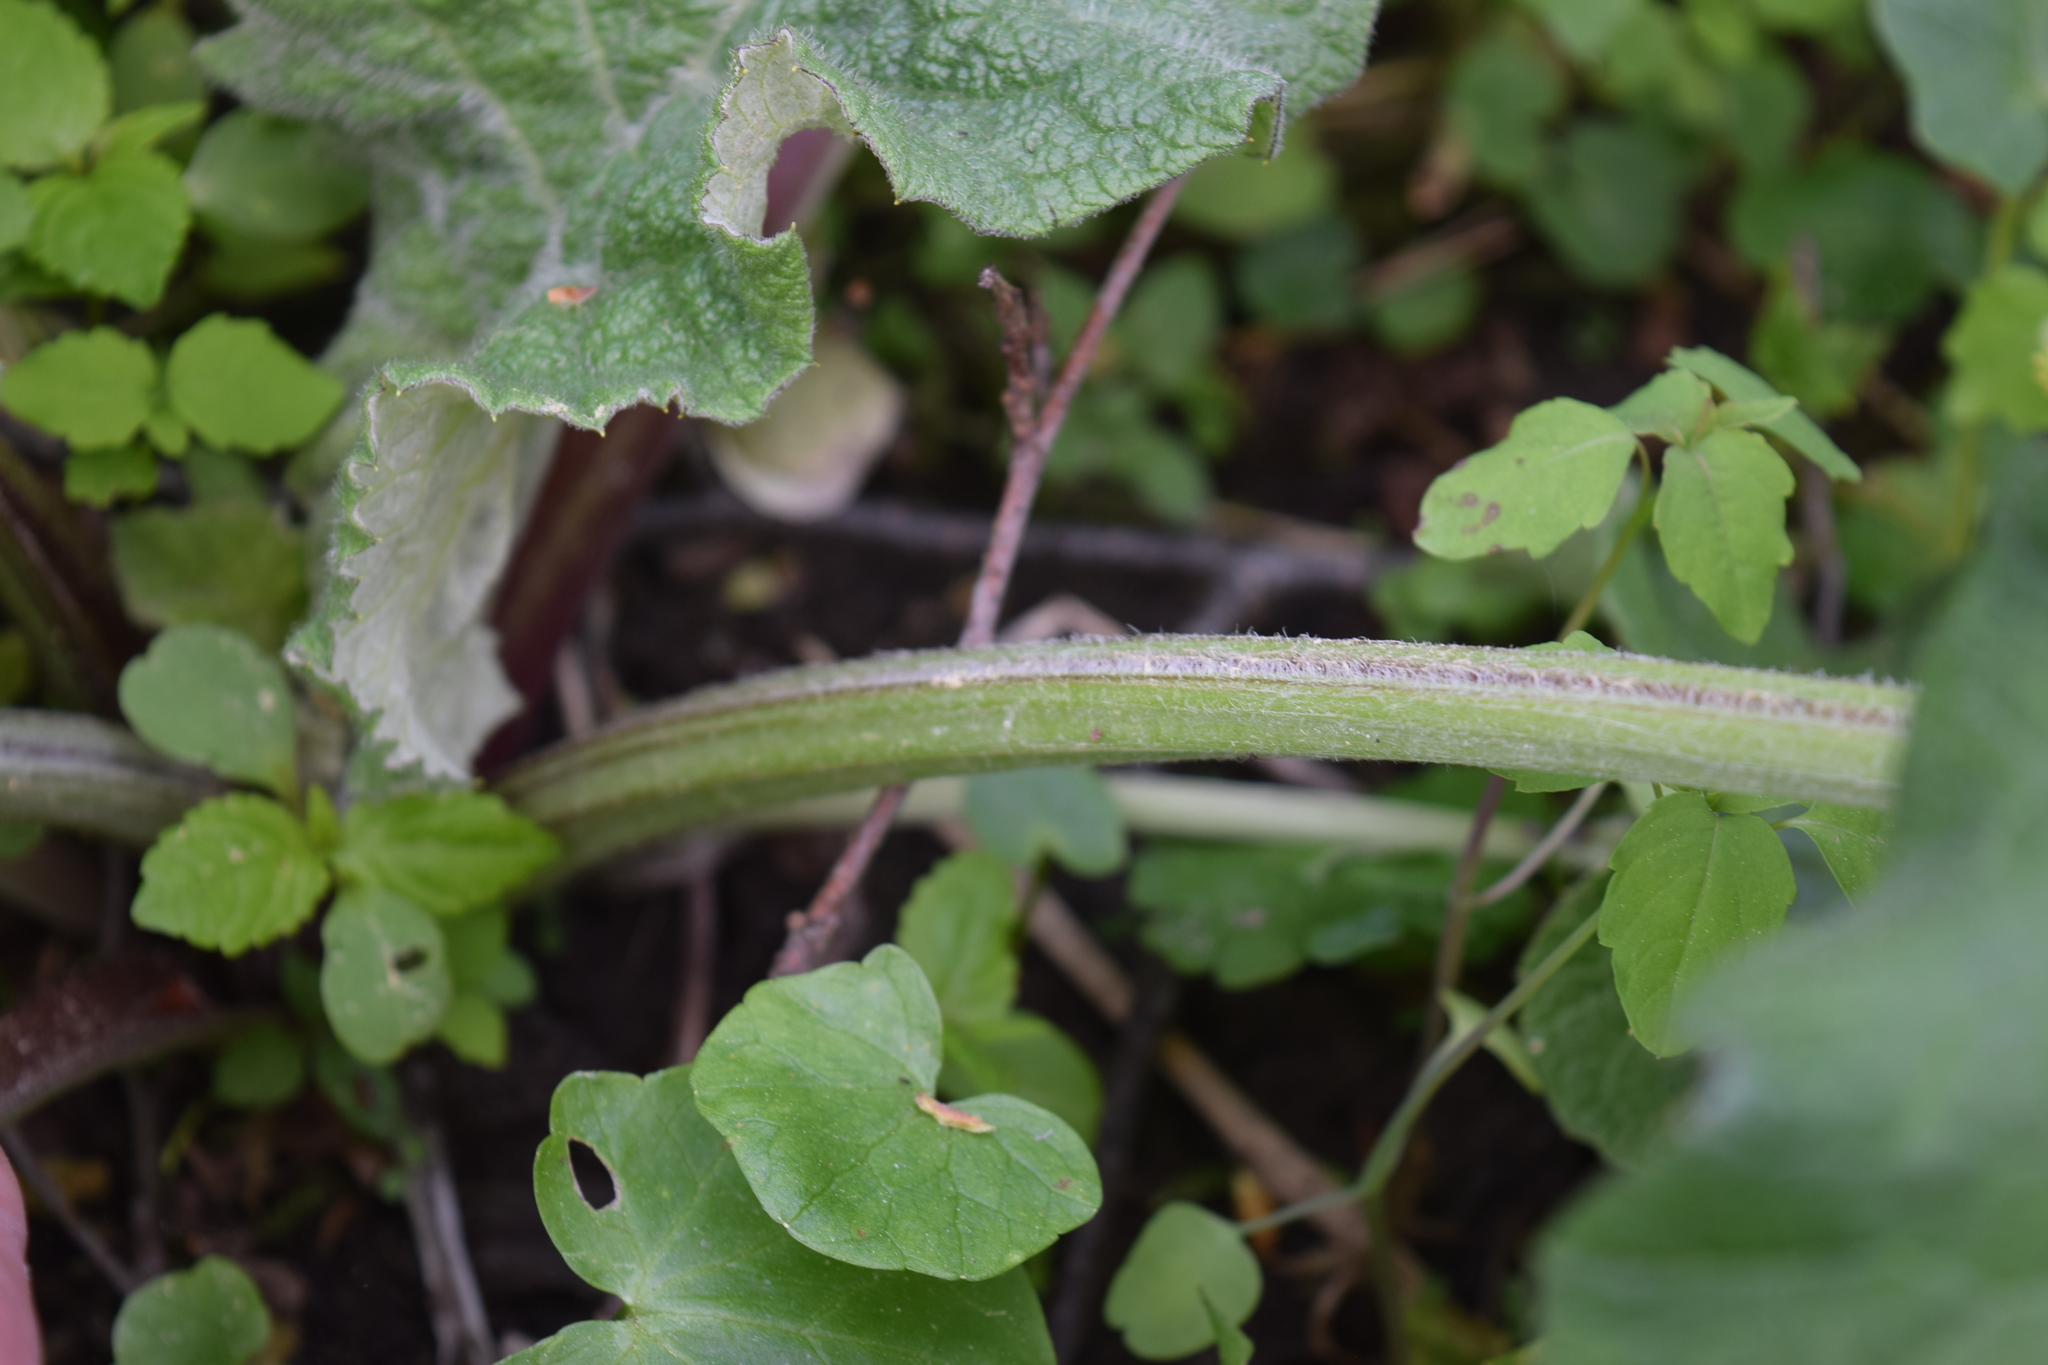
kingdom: Plantae
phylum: Tracheophyta
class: Magnoliopsida
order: Asterales
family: Asteraceae
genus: Arctium
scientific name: Arctium
